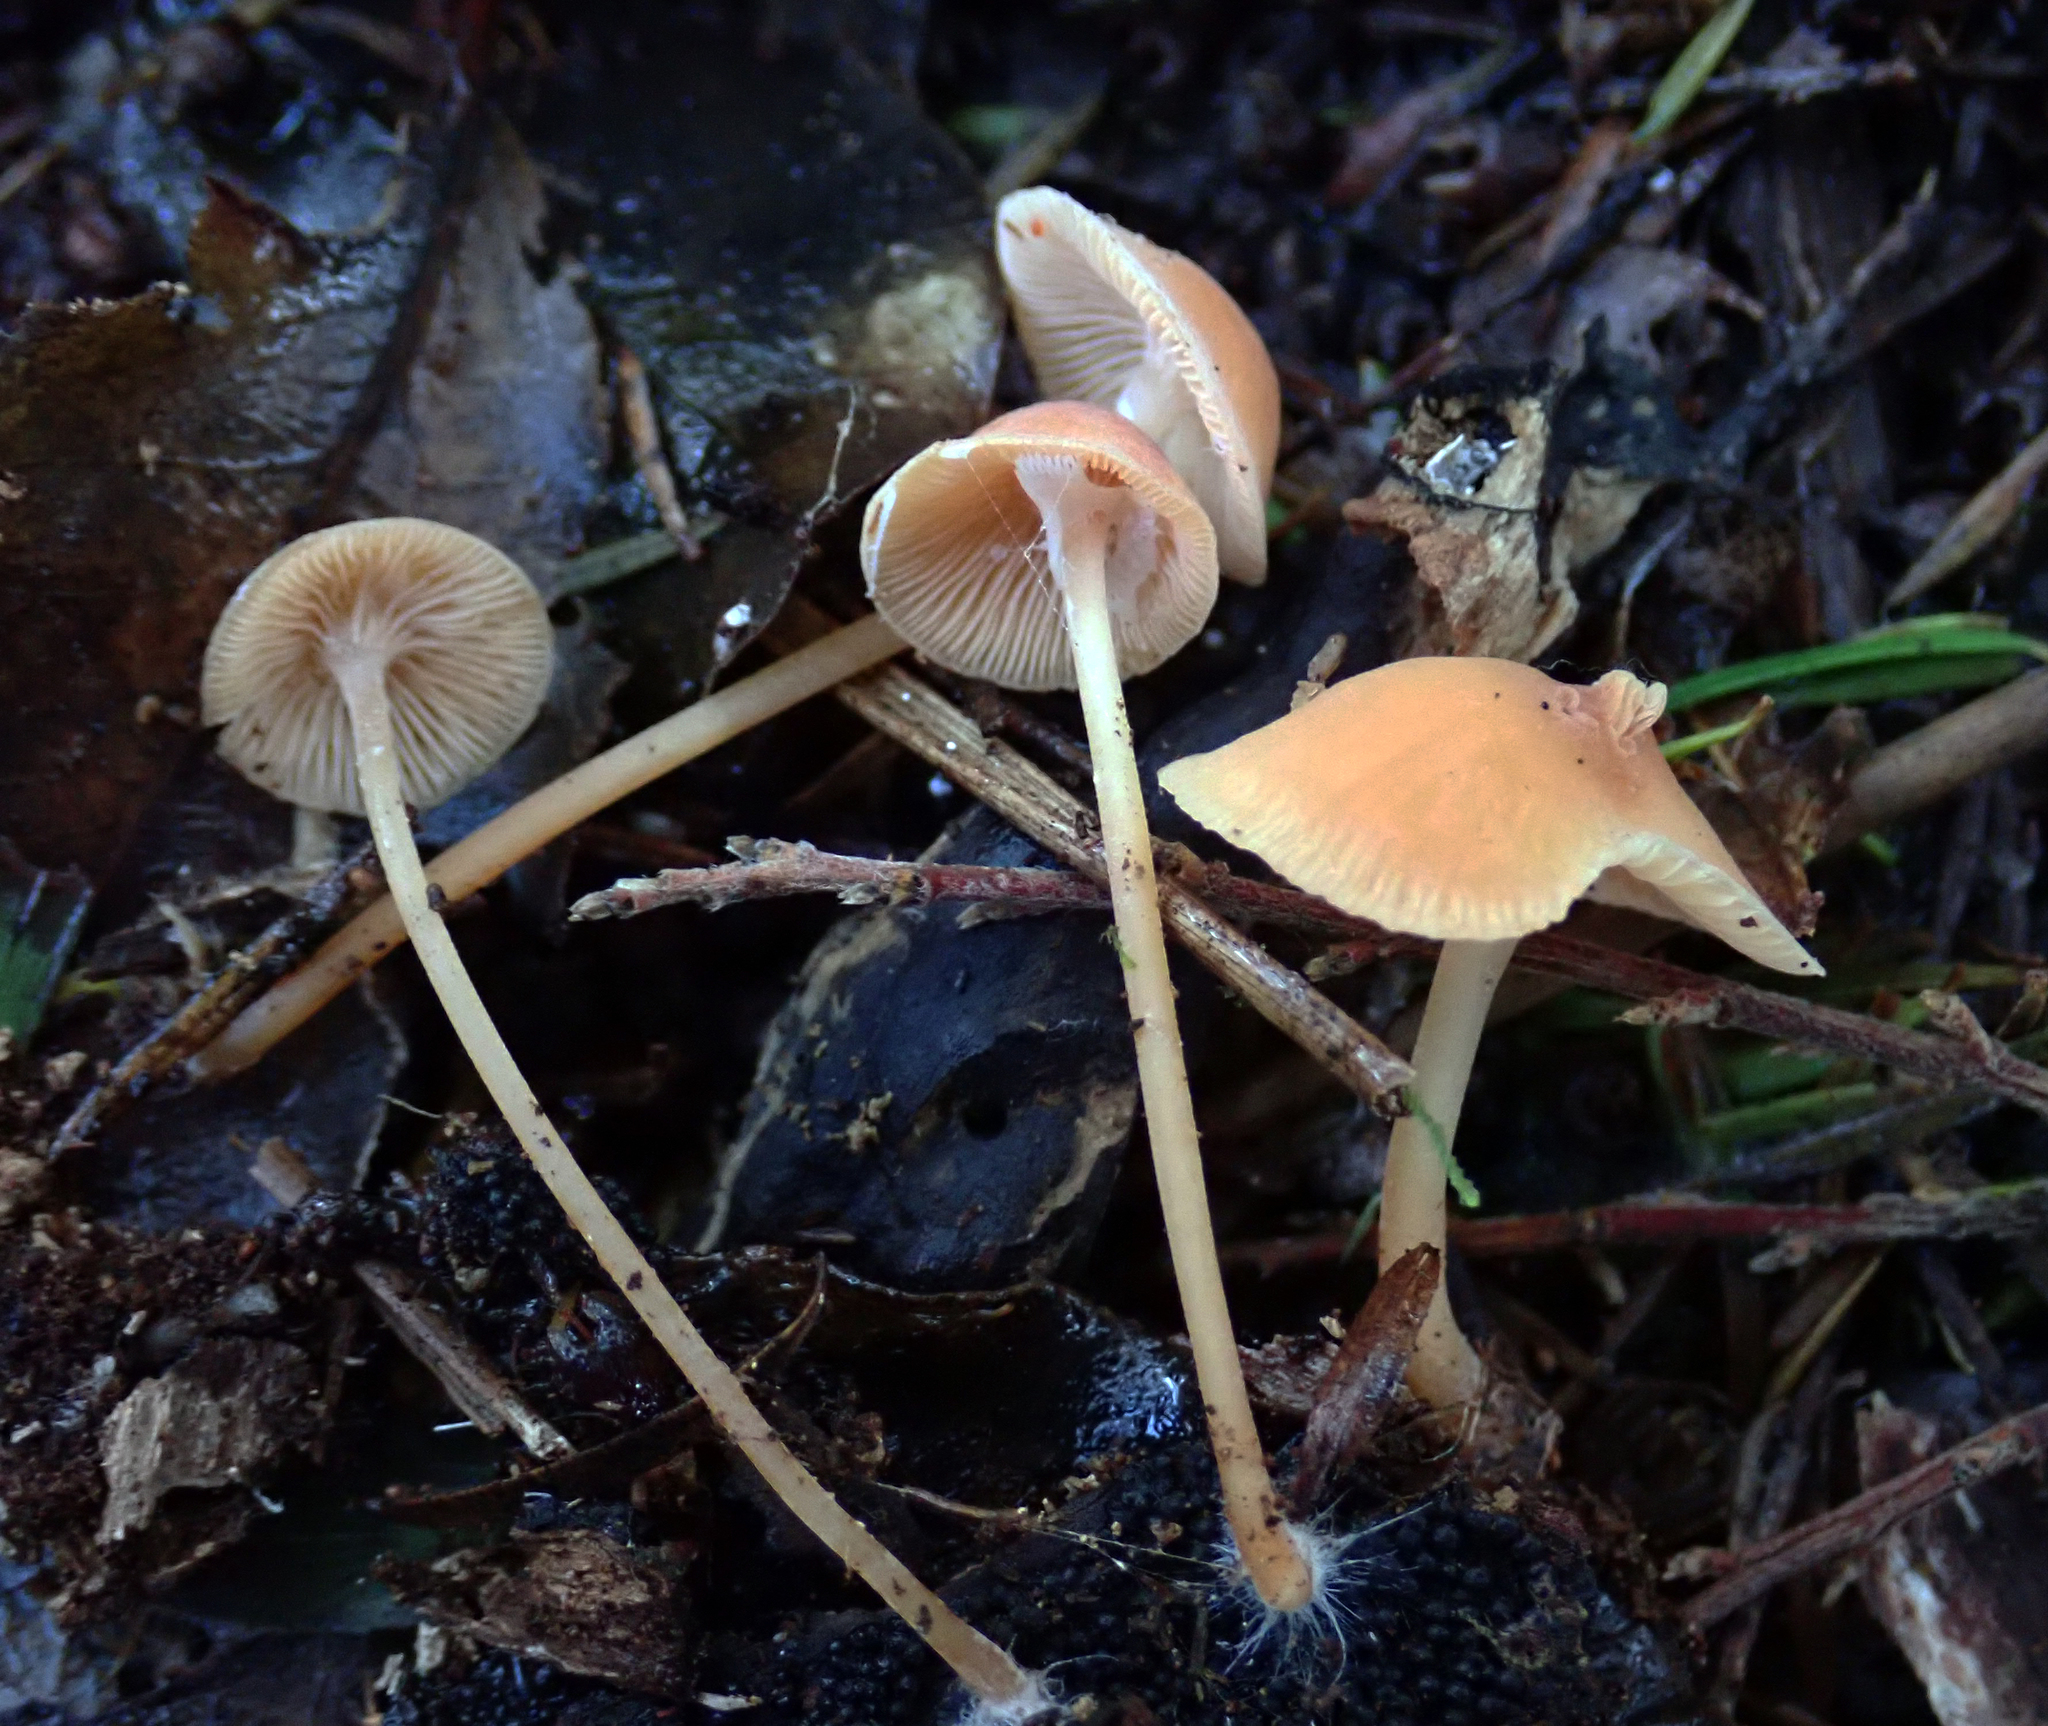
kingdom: Fungi
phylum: Basidiomycota
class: Agaricomycetes
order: Agaricales
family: Tricholomataceae
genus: Omphalina
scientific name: Omphalina wellingtonensis
